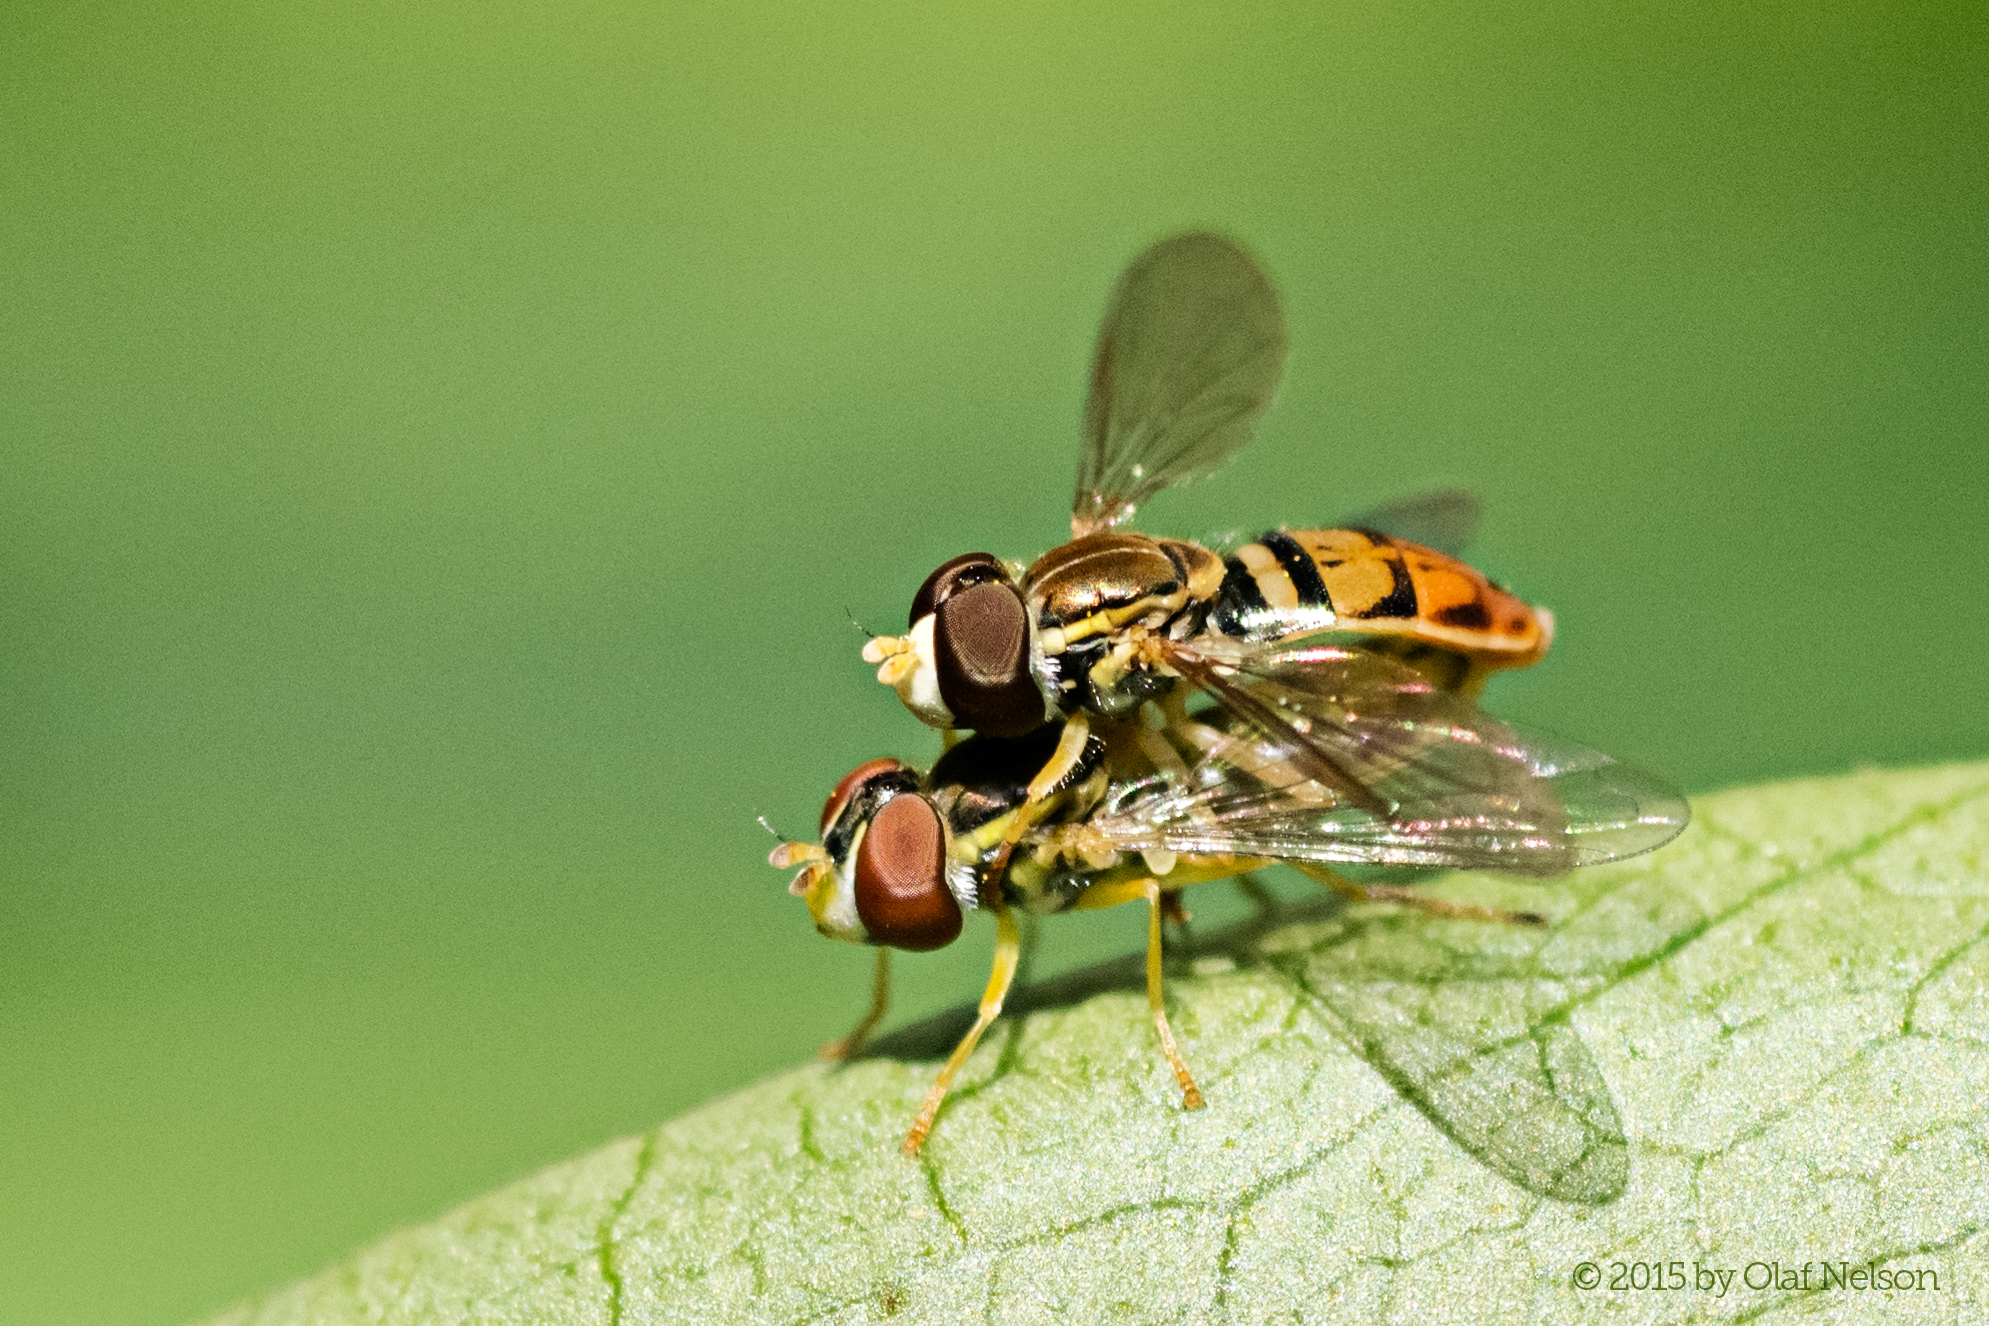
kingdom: Animalia
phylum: Arthropoda
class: Insecta
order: Diptera
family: Syrphidae
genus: Toxomerus
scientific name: Toxomerus marginatus
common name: Syrphid fly
